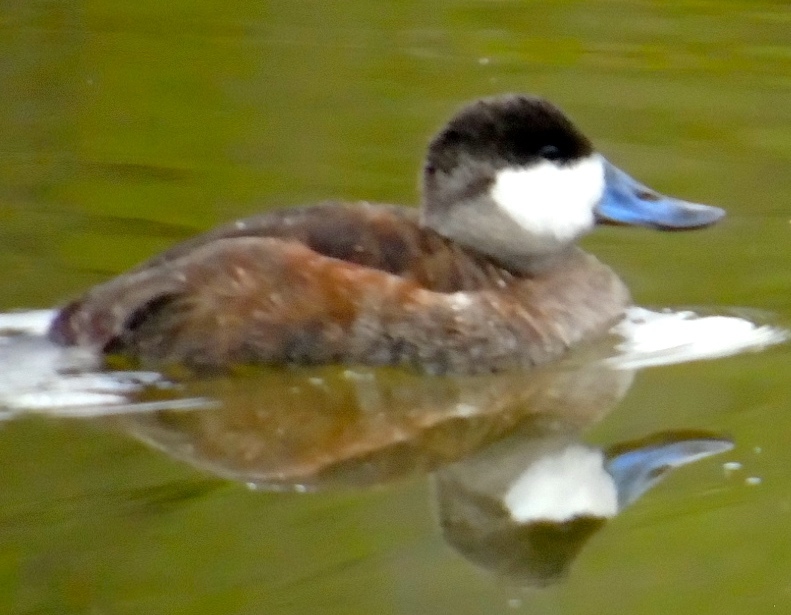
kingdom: Animalia
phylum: Chordata
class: Aves
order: Anseriformes
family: Anatidae
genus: Oxyura
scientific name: Oxyura jamaicensis
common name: Ruddy duck
